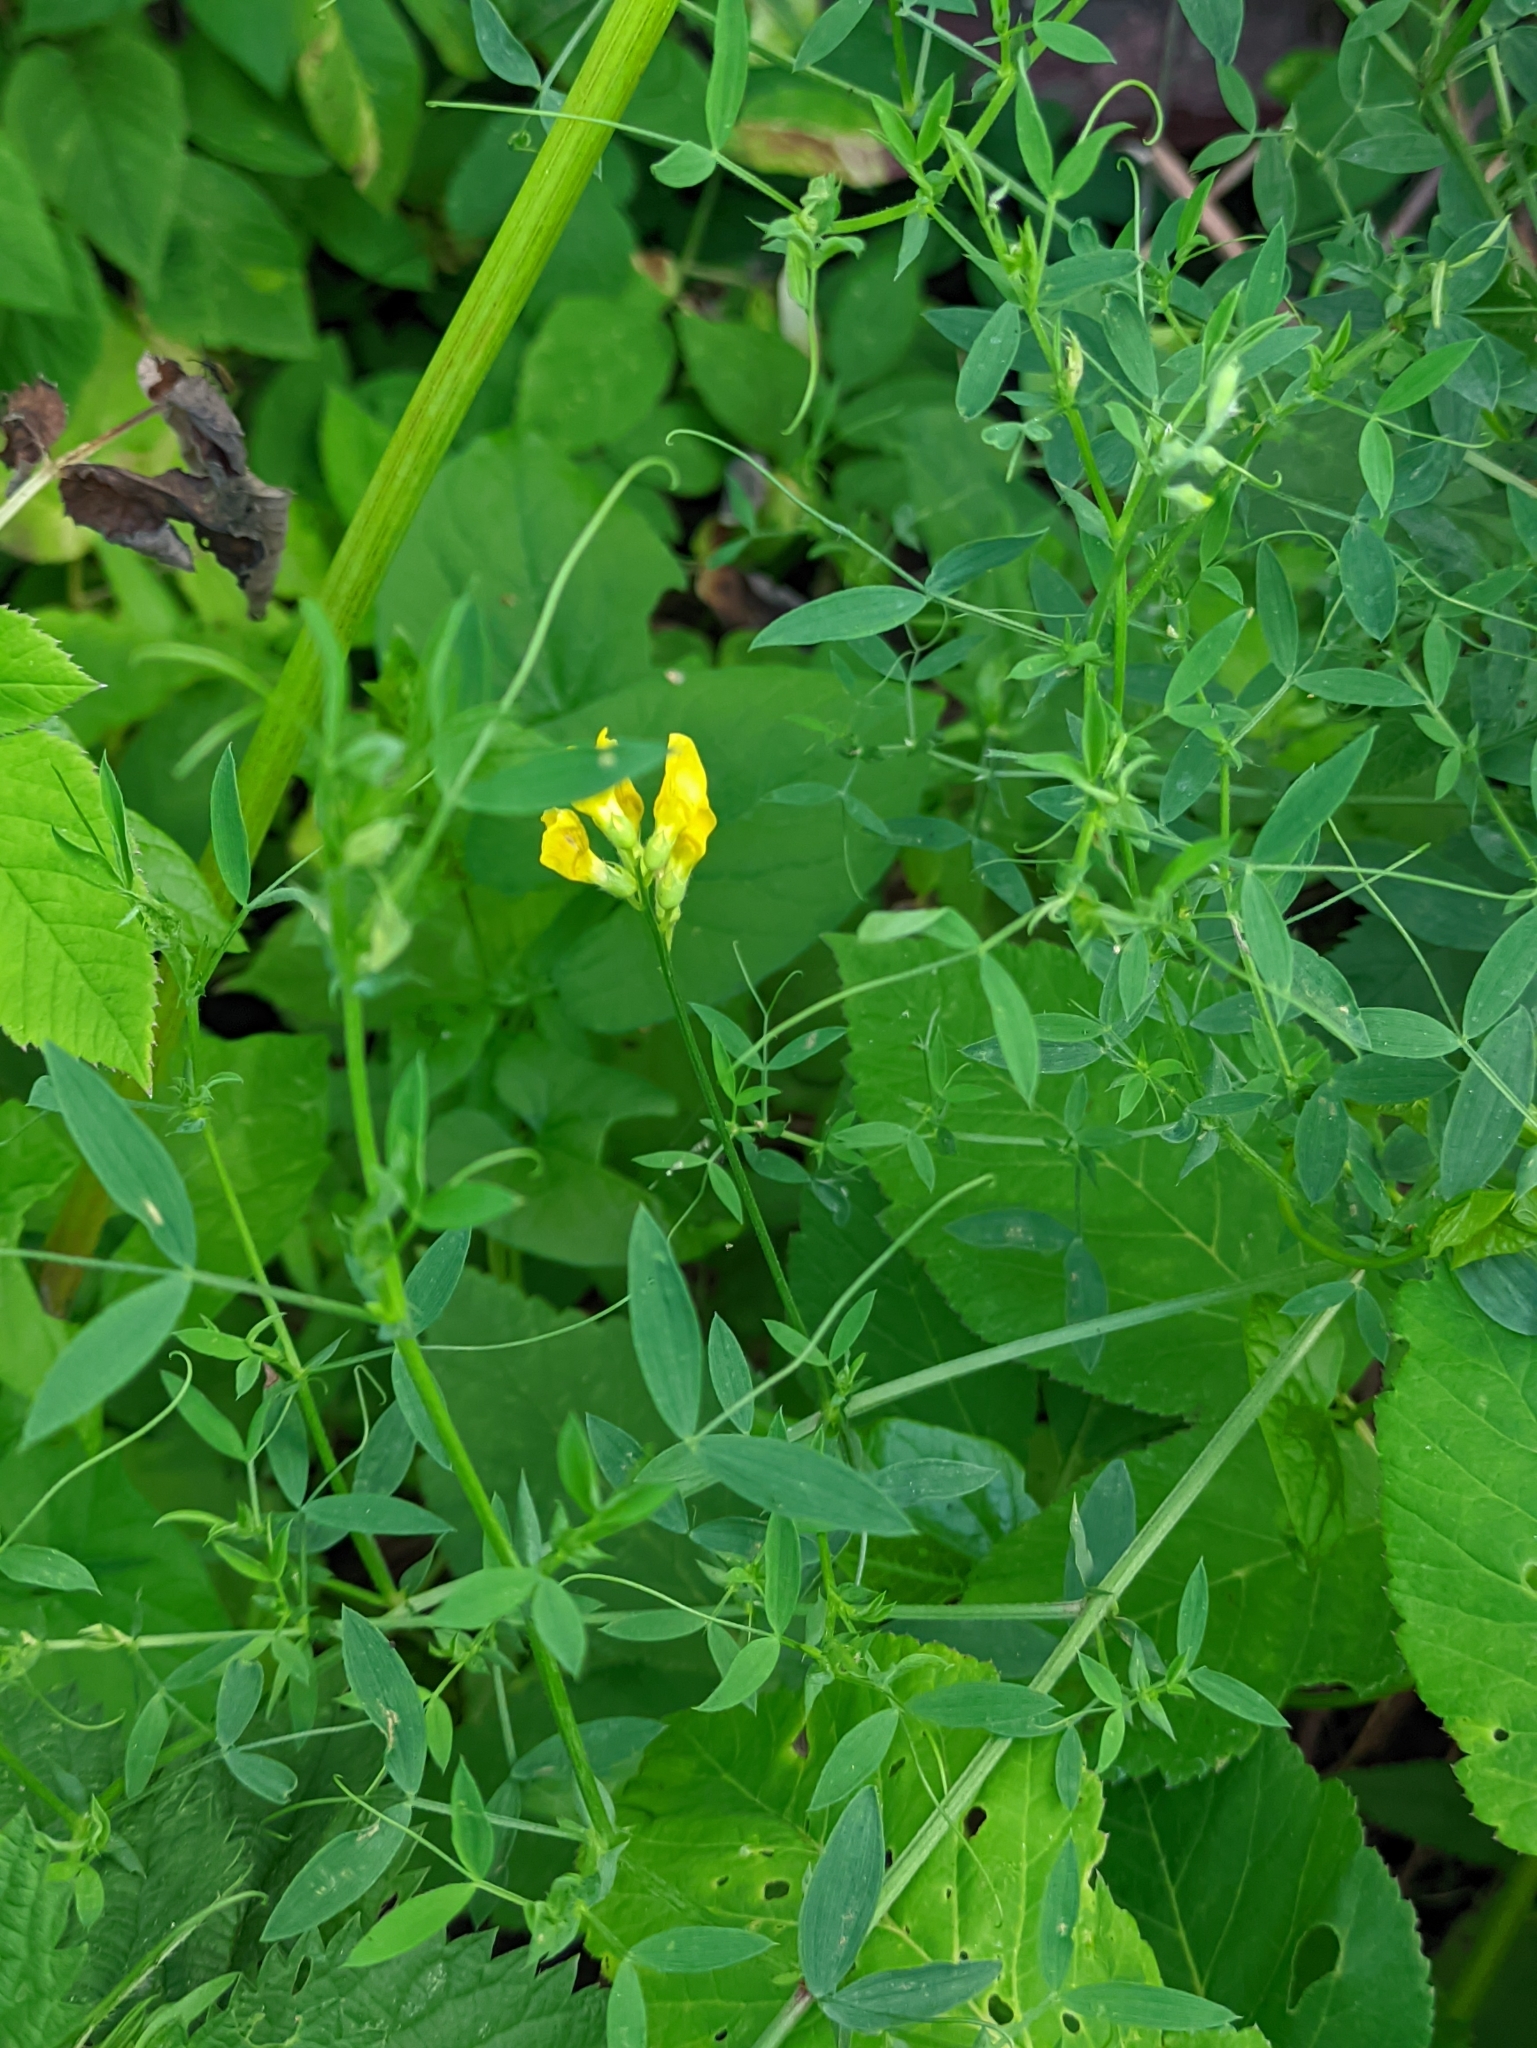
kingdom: Plantae
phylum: Tracheophyta
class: Magnoliopsida
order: Fabales
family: Fabaceae
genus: Lathyrus
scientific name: Lathyrus pratensis
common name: Meadow vetchling
